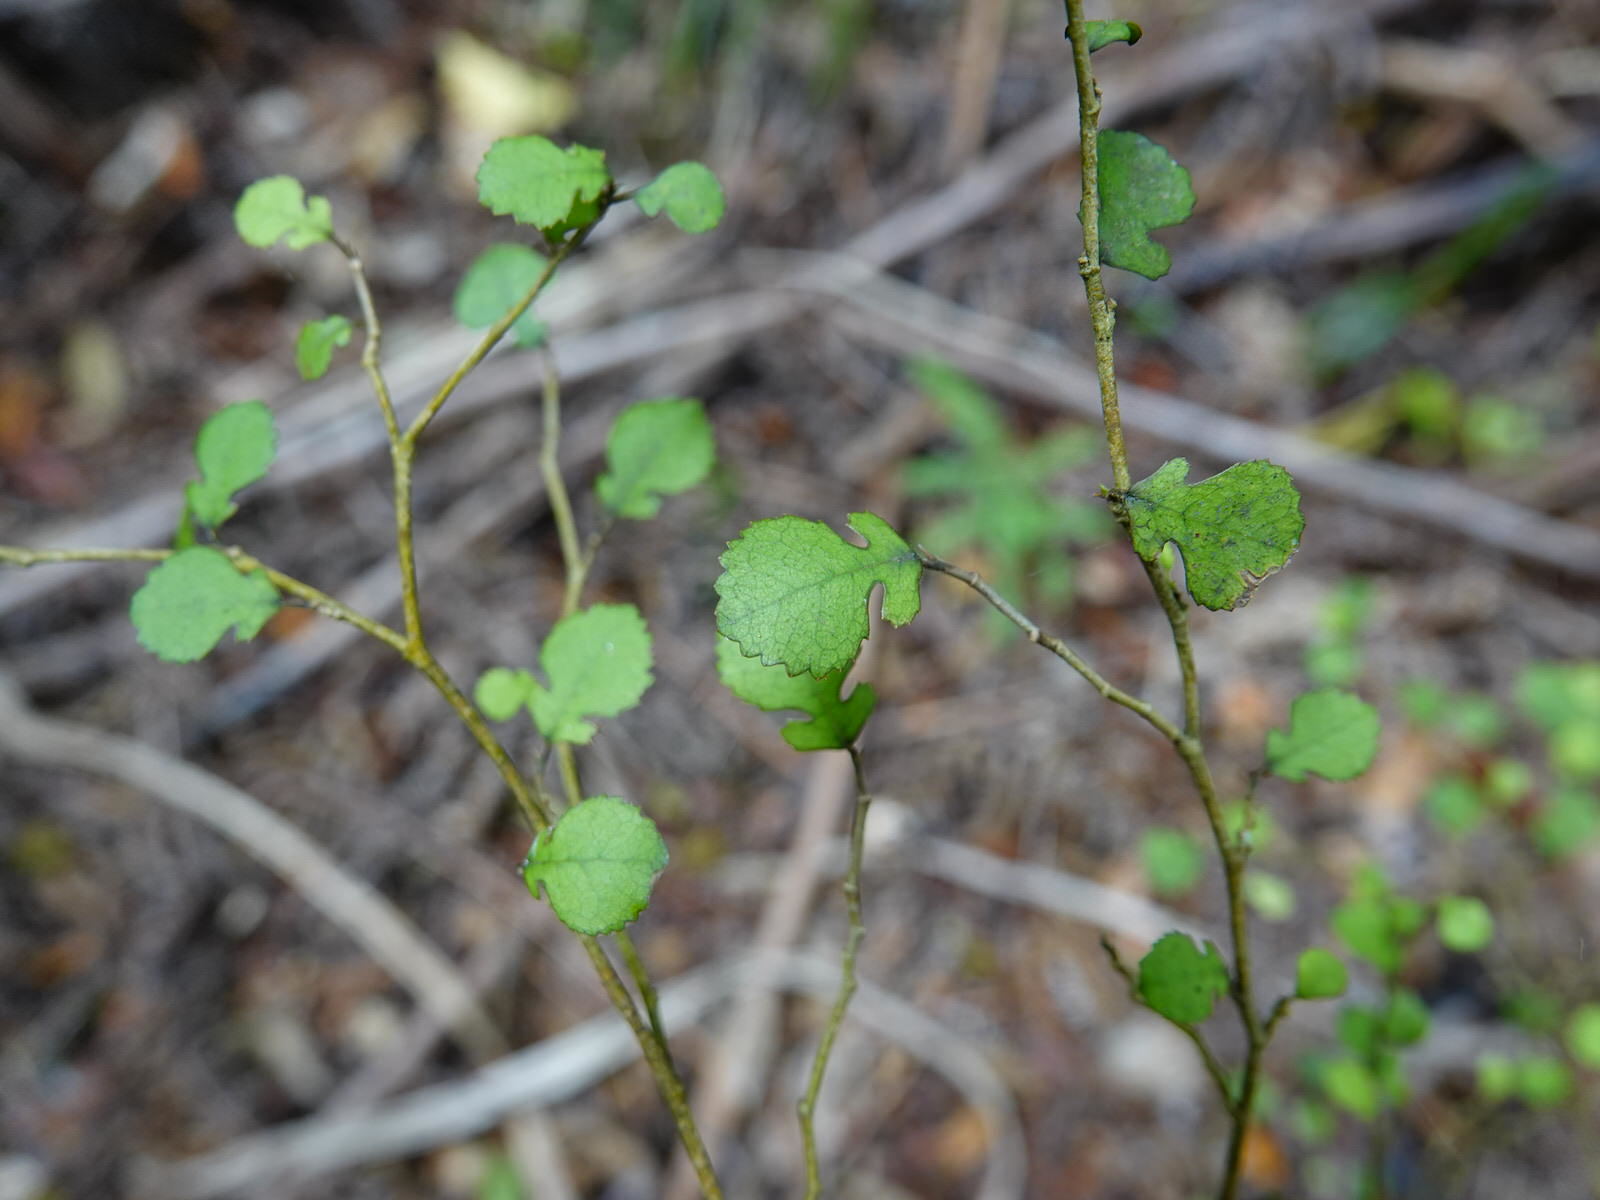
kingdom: Plantae
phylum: Tracheophyta
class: Magnoliopsida
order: Rosales
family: Moraceae
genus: Paratrophis
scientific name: Paratrophis microphylla
